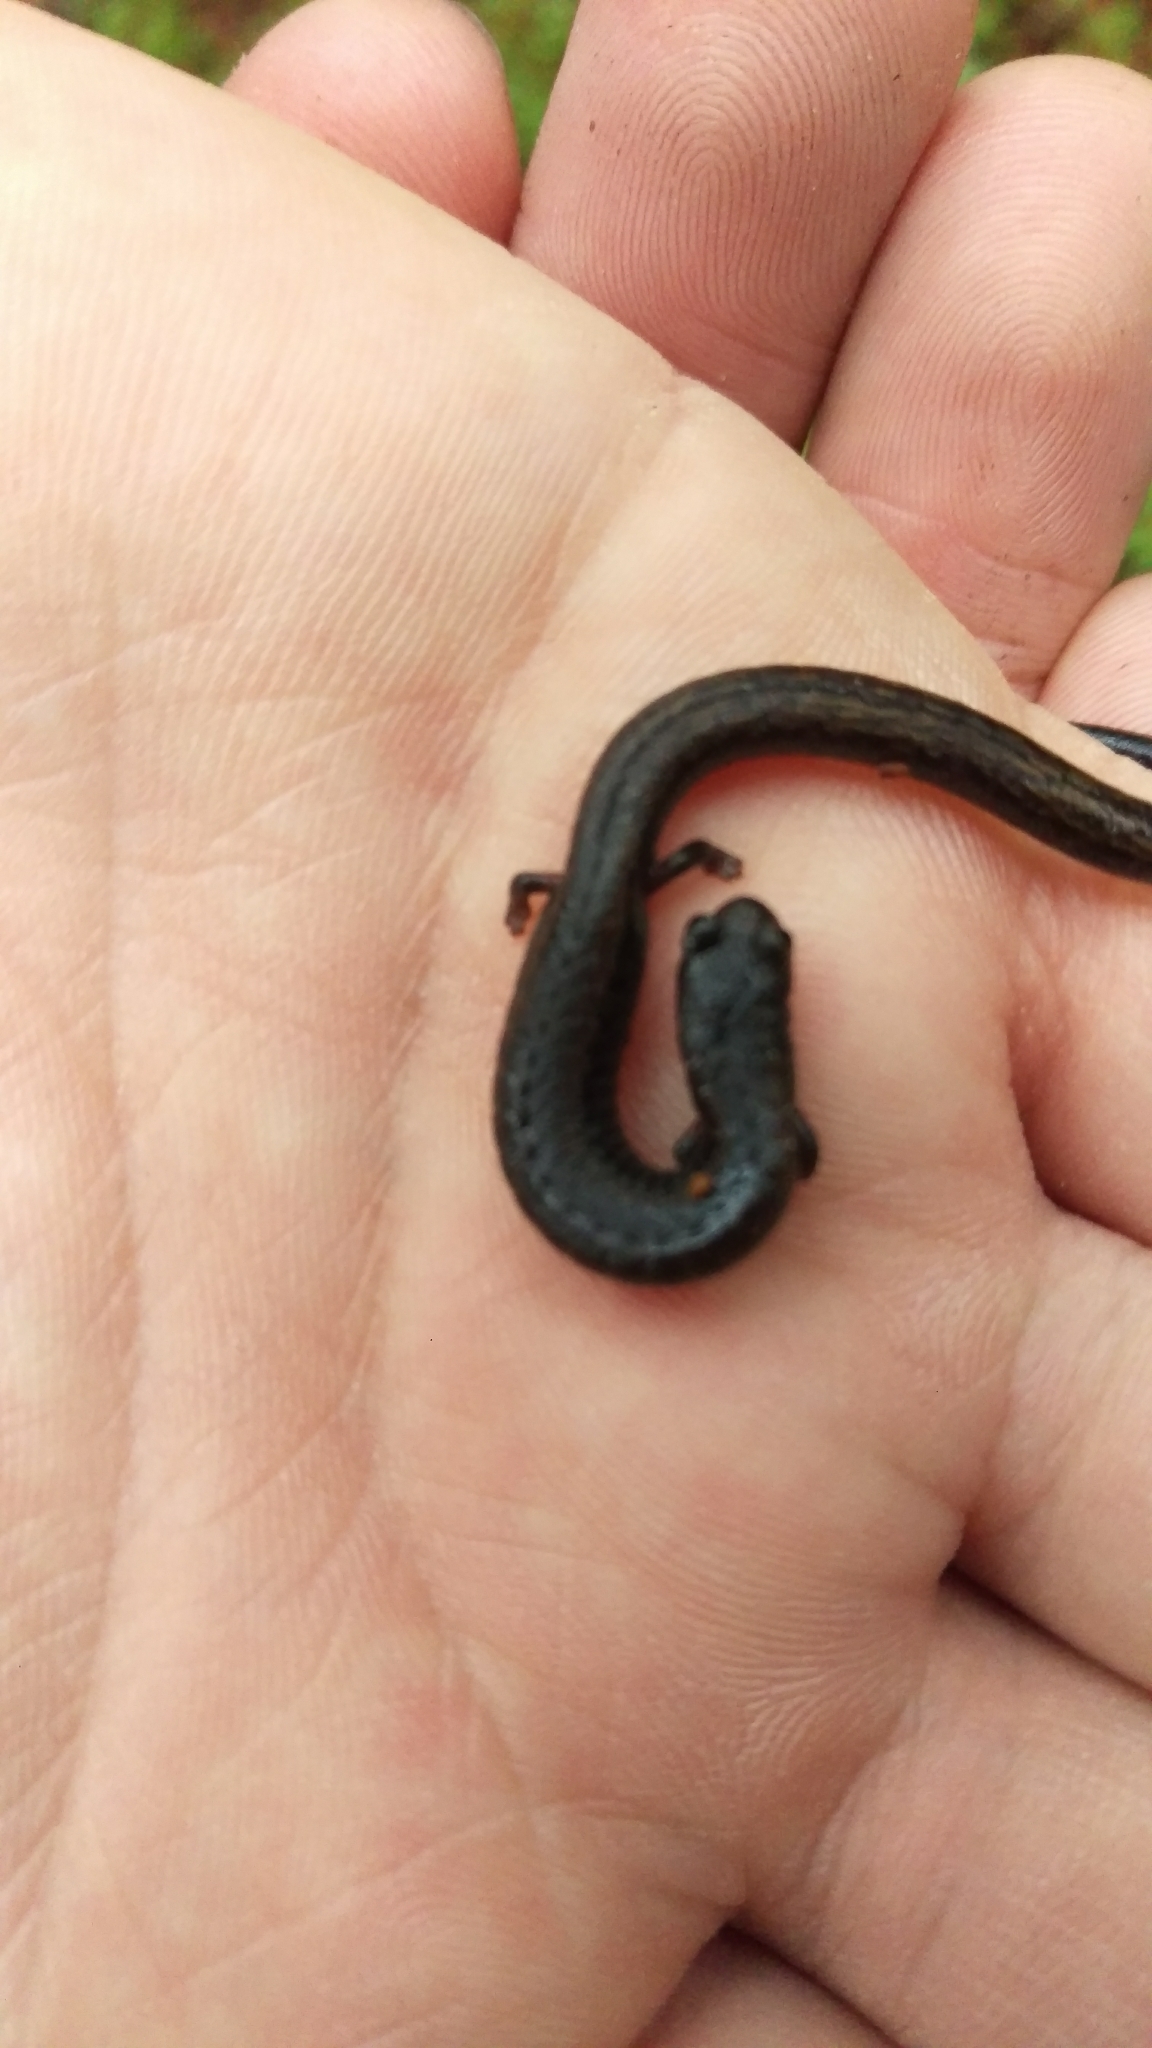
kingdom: Animalia
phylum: Chordata
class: Amphibia
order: Caudata
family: Plethodontidae
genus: Batrachoseps
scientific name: Batrachoseps attenuatus
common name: California slender salamander
